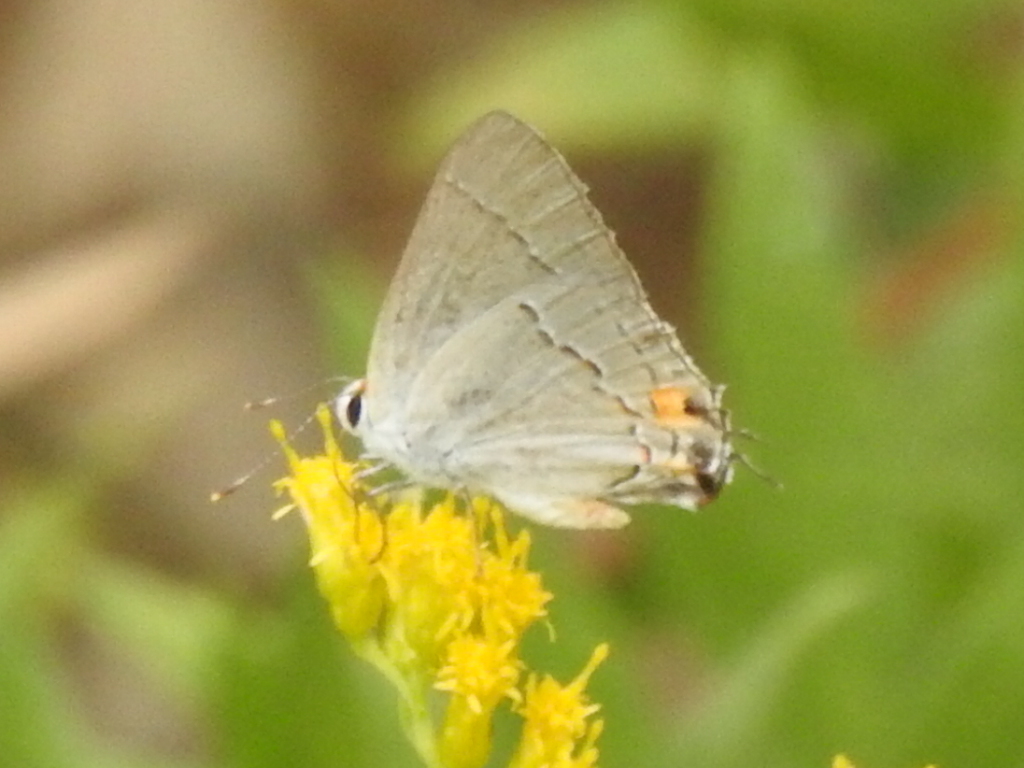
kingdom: Animalia
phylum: Arthropoda
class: Insecta
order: Lepidoptera
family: Lycaenidae
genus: Strymon
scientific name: Strymon melinus
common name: Gray hairstreak
